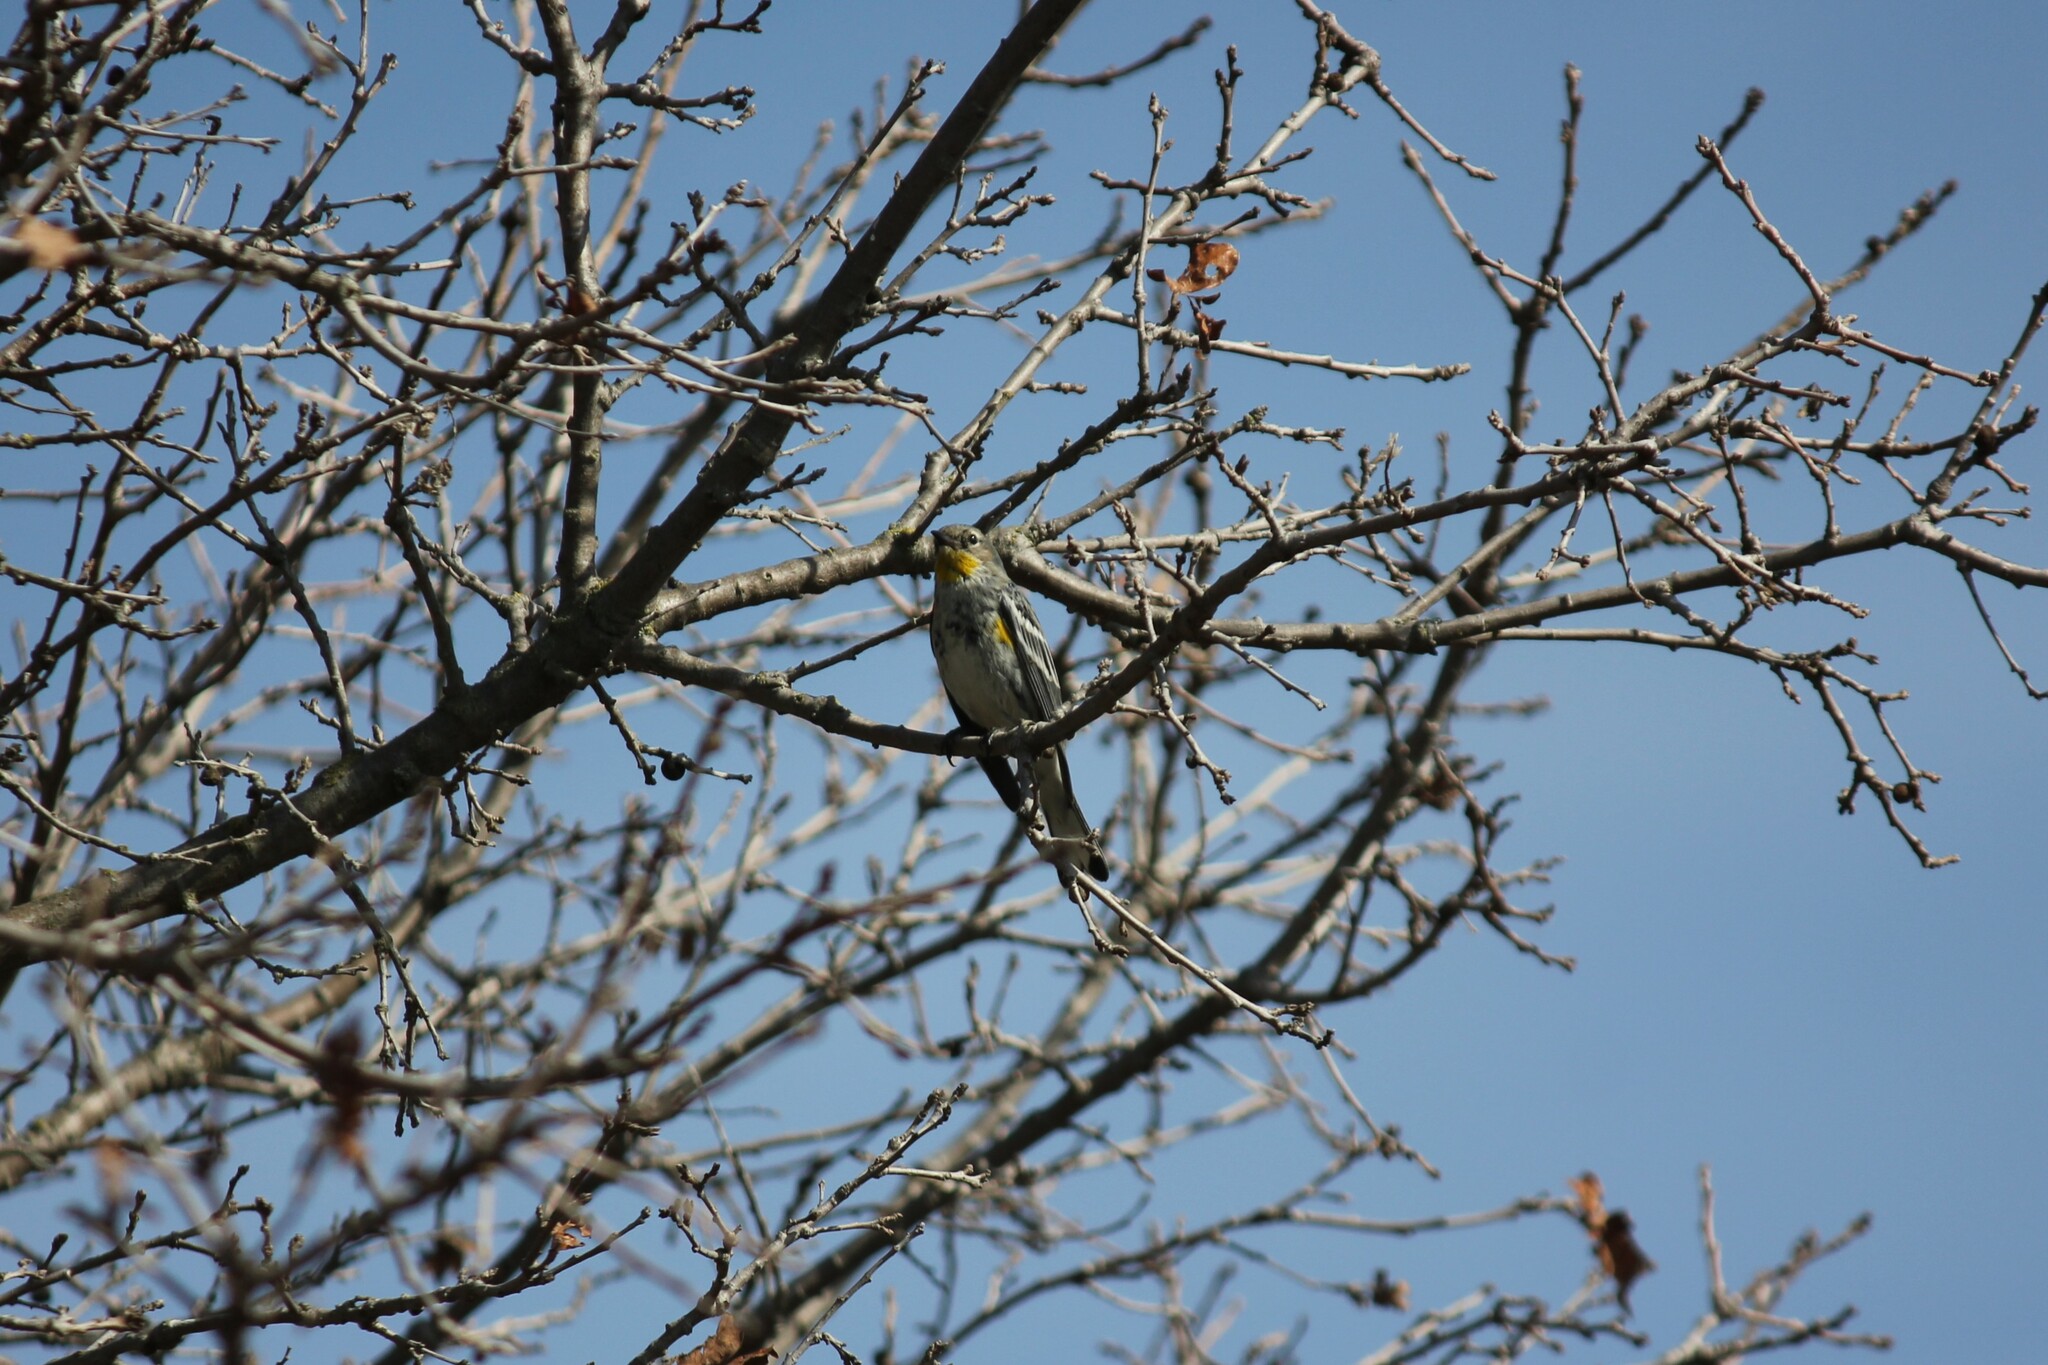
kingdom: Animalia
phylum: Chordata
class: Aves
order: Passeriformes
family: Parulidae
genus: Setophaga
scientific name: Setophaga coronata
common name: Myrtle warbler
